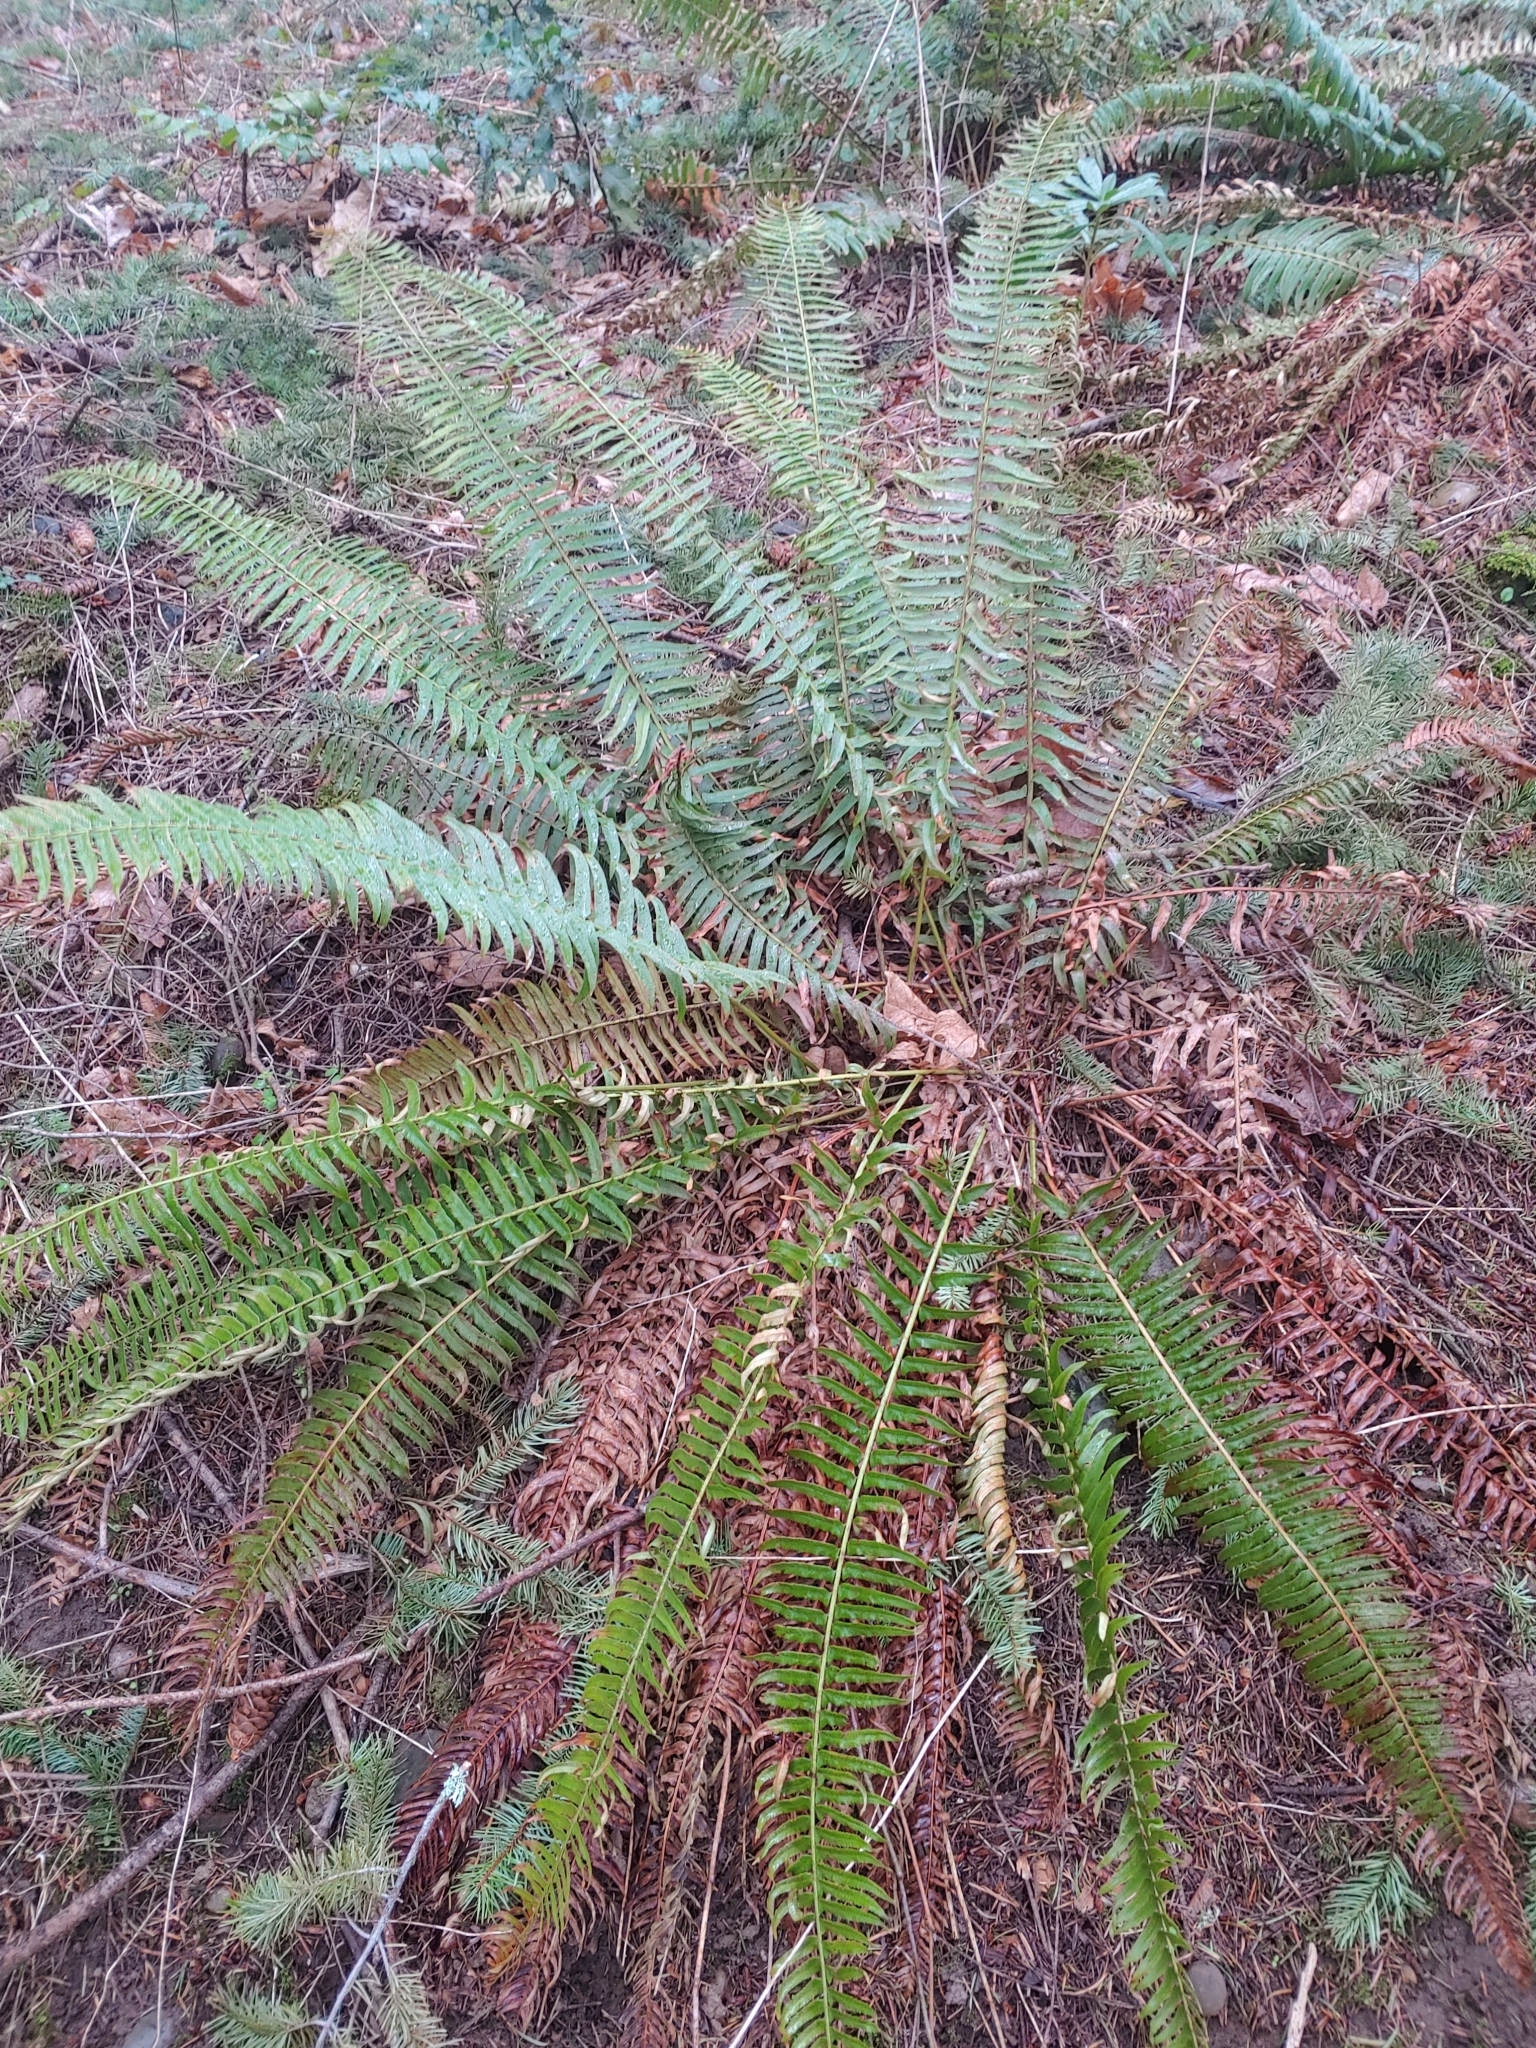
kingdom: Plantae
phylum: Tracheophyta
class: Polypodiopsida
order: Polypodiales
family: Dryopteridaceae
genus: Polystichum
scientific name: Polystichum munitum
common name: Western sword-fern
